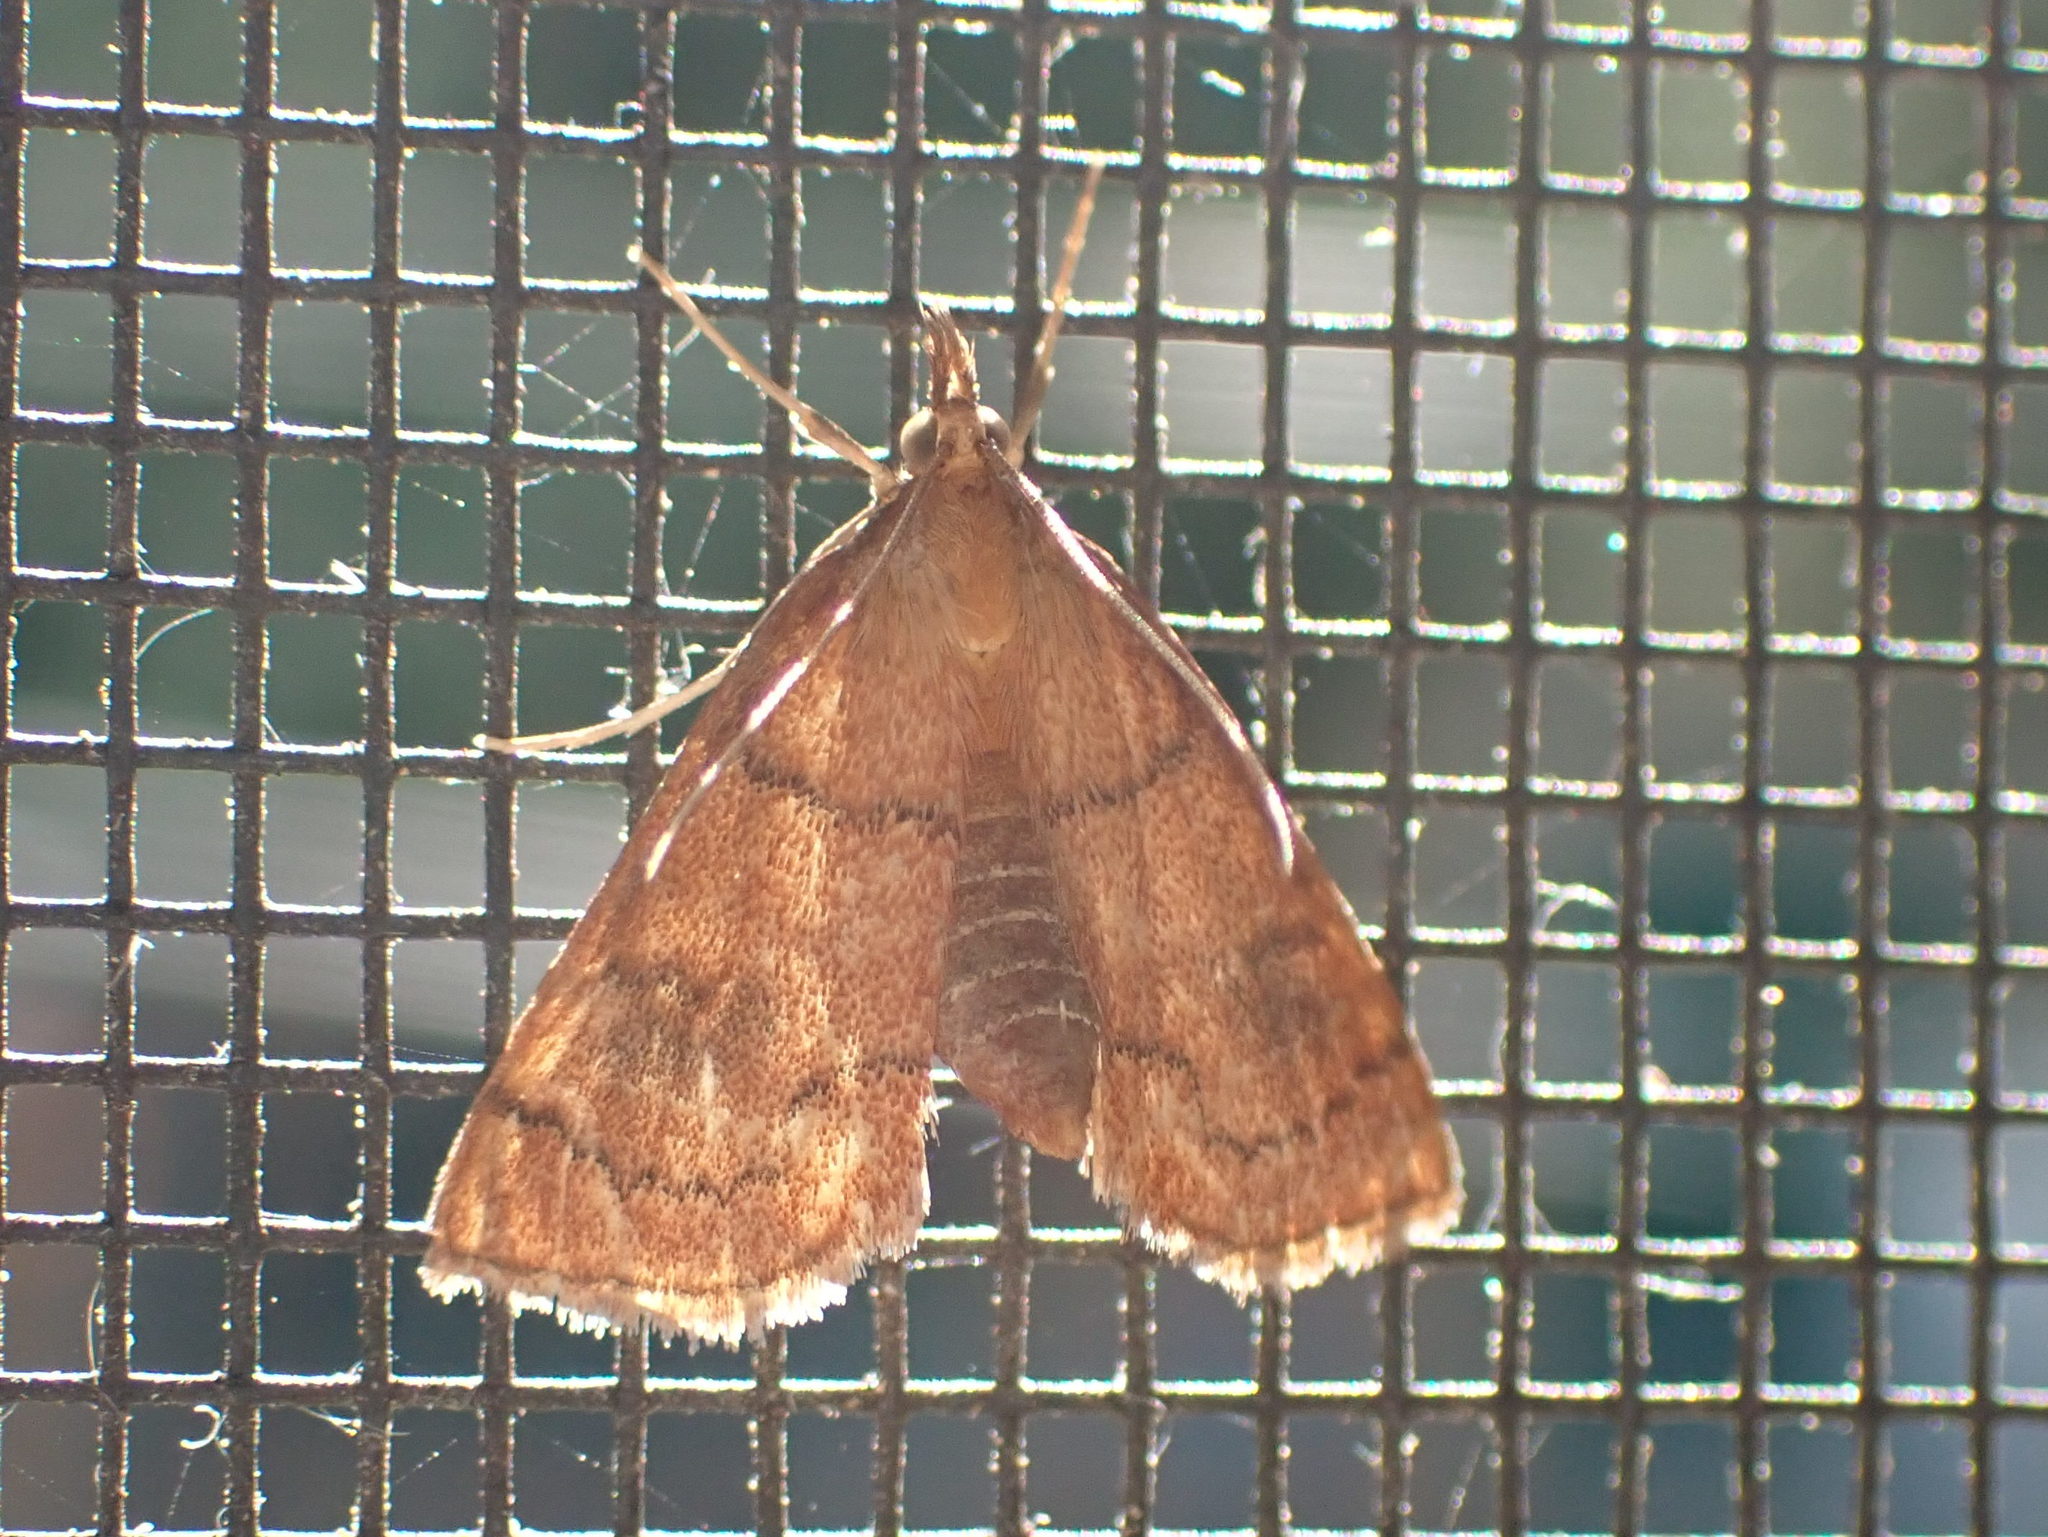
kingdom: Animalia
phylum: Arthropoda
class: Insecta
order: Lepidoptera
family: Crambidae
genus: Fumibotys
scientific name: Fumibotys fumalis
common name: Mint root borer moth
